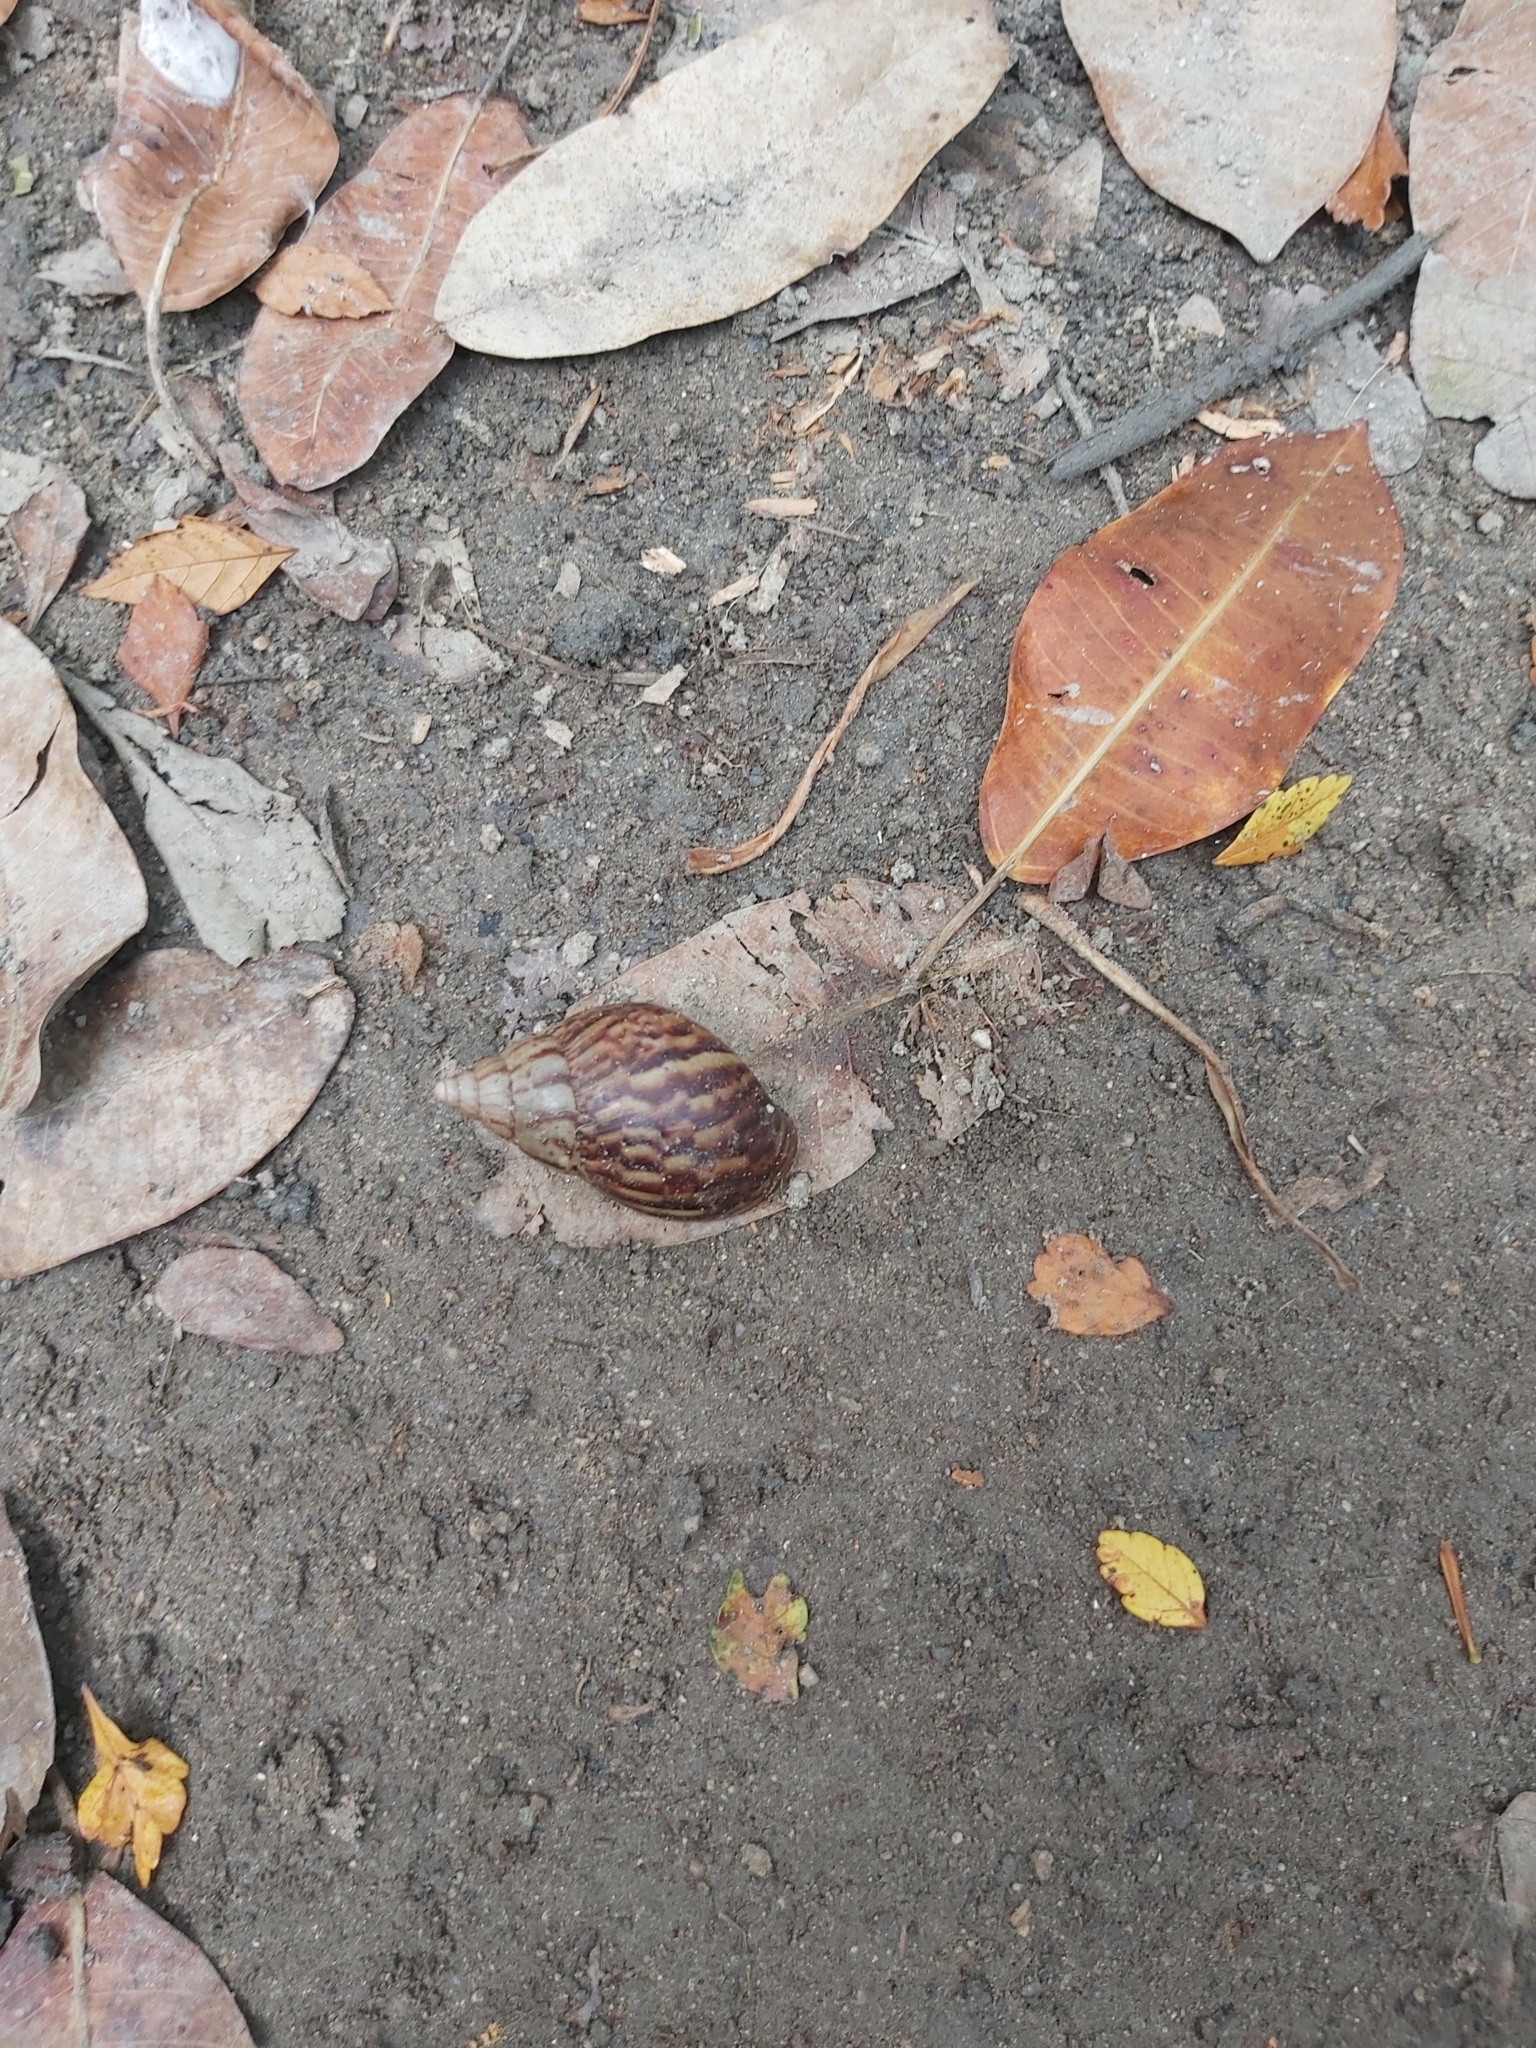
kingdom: Animalia
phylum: Mollusca
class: Gastropoda
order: Stylommatophora
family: Achatinidae
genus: Lissachatina
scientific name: Lissachatina fulica
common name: Giant african snail
